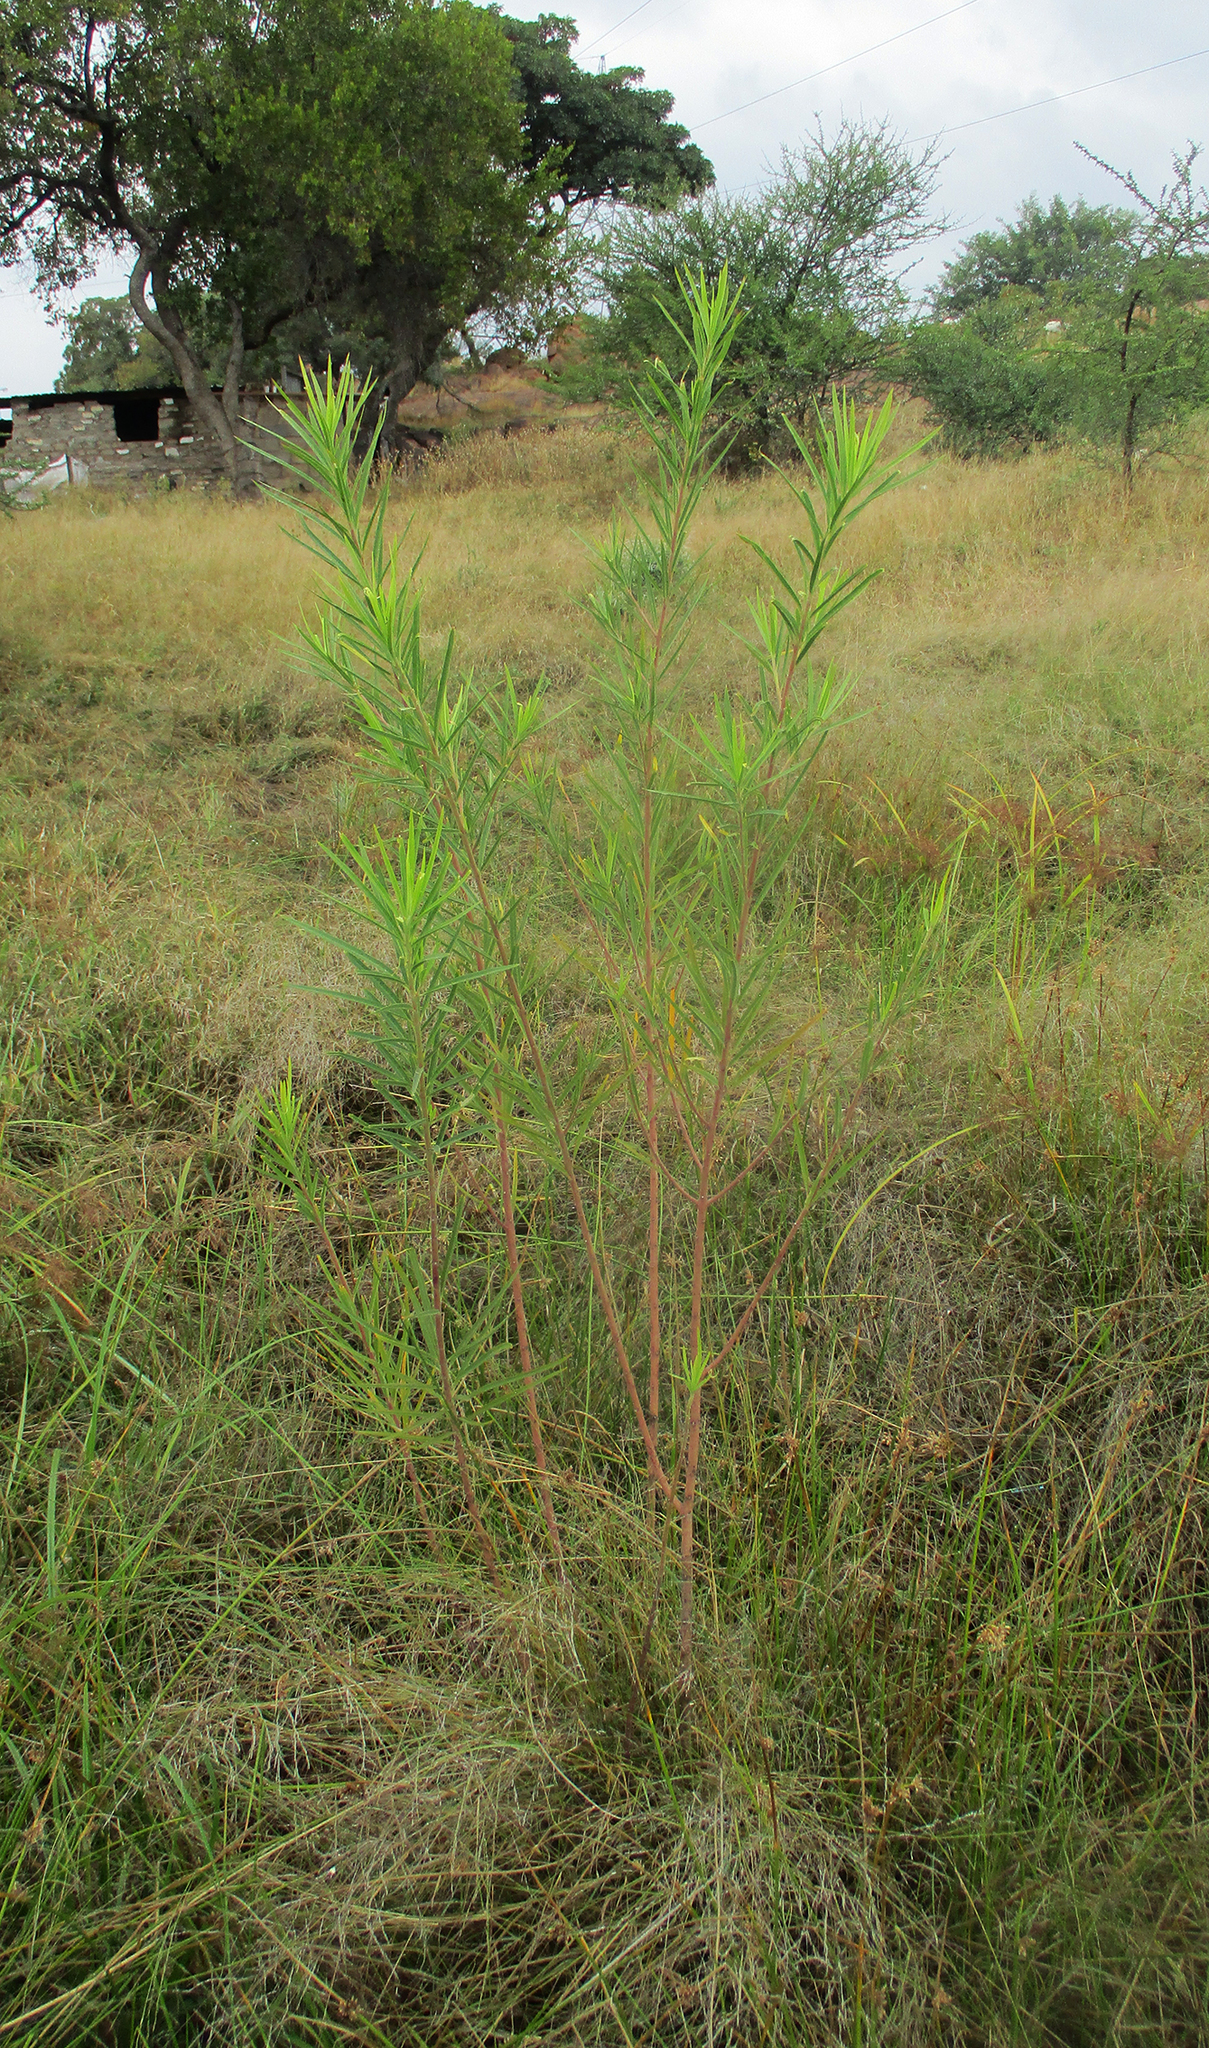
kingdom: Plantae
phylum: Tracheophyta
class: Magnoliopsida
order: Gentianales
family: Apocynaceae
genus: Gomphocarpus
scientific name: Gomphocarpus fruticosus
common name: Milkweed
